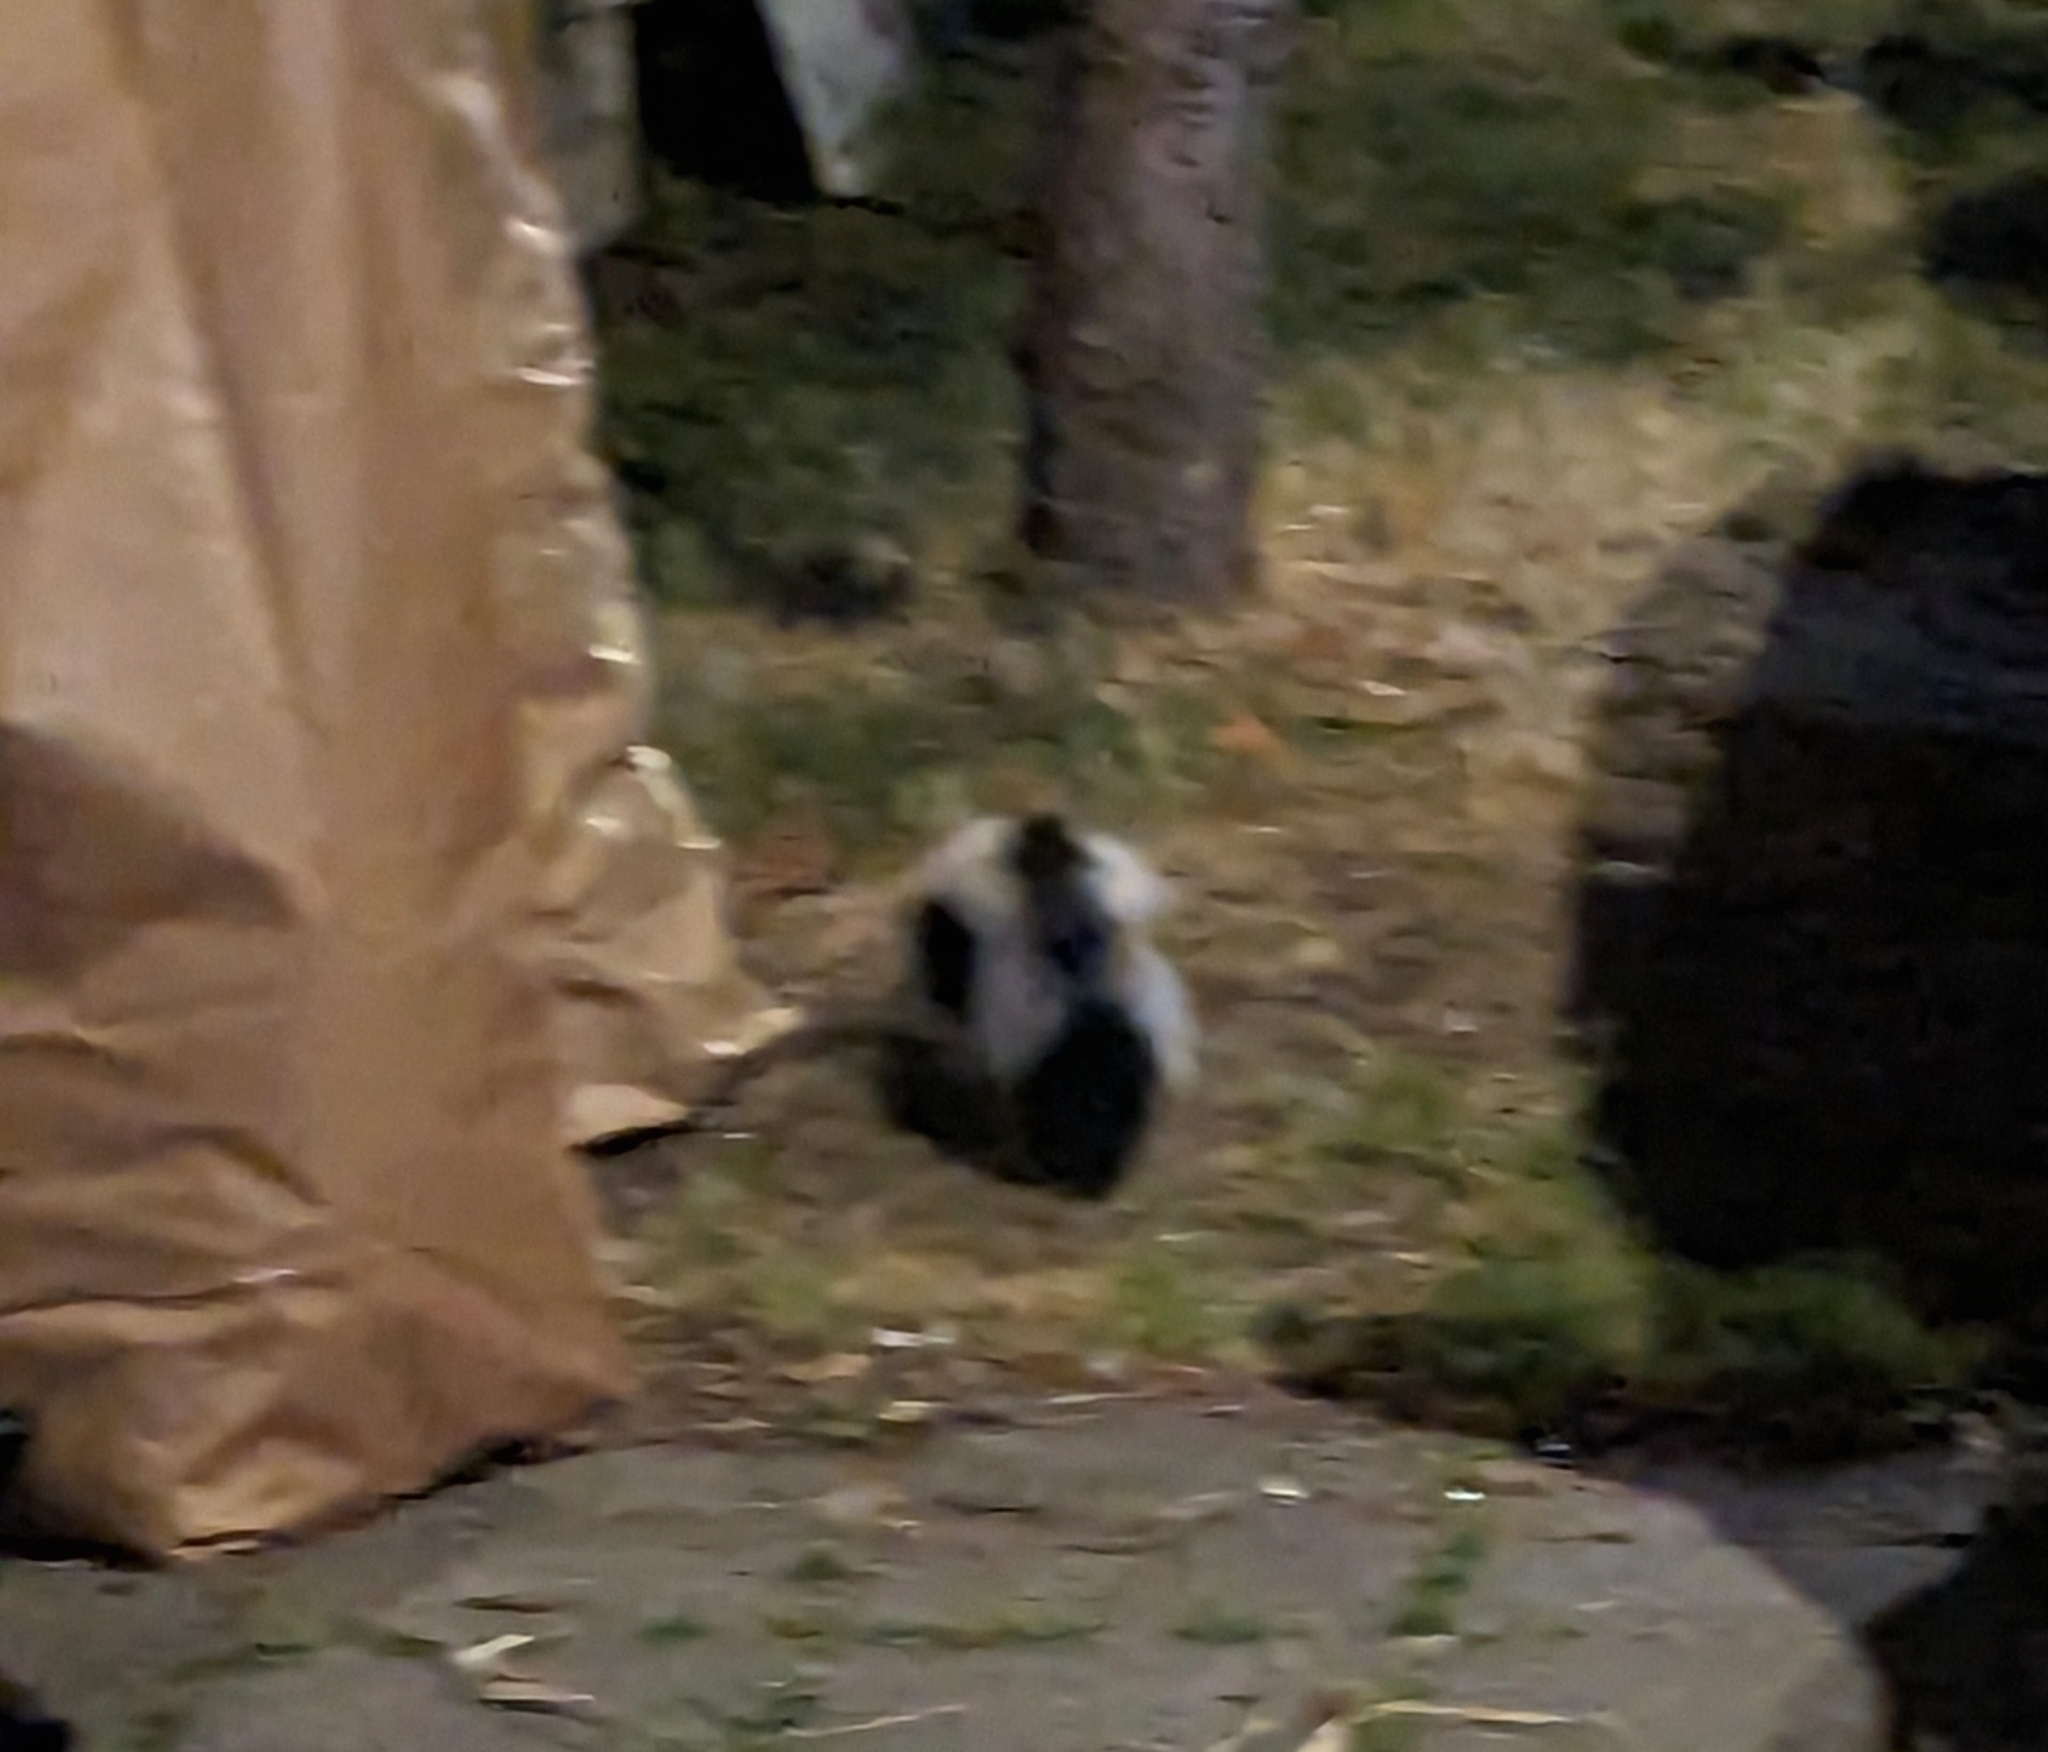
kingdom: Animalia
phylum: Chordata
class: Mammalia
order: Carnivora
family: Mephitidae
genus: Mephitis
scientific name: Mephitis mephitis
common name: Striped skunk
